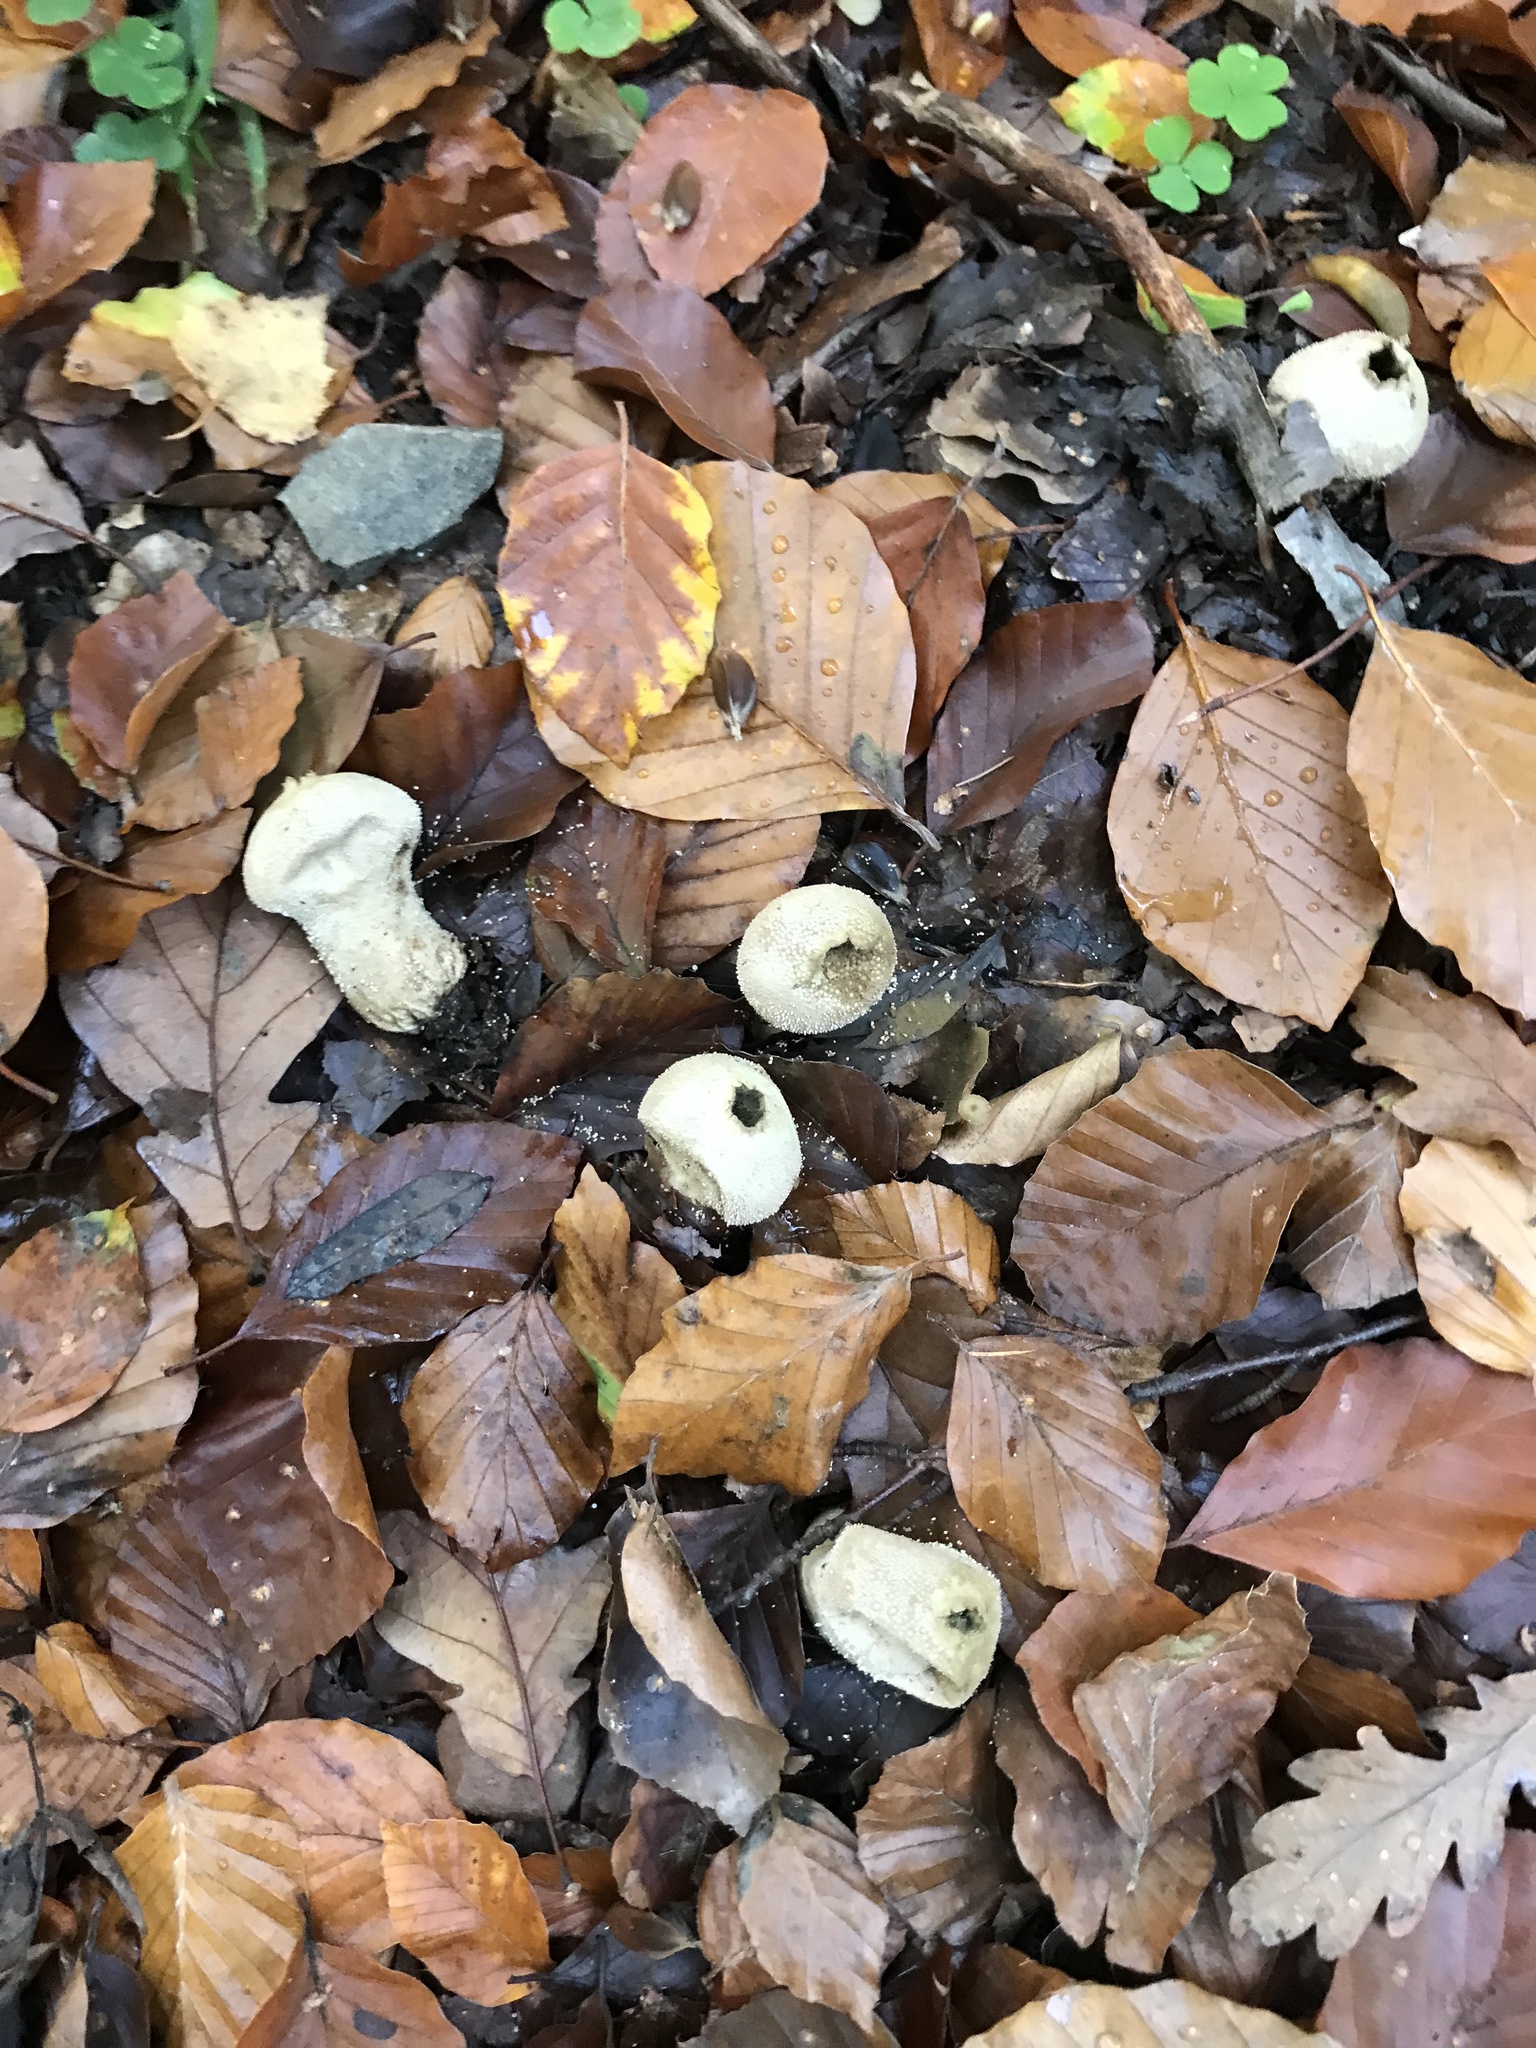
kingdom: Fungi
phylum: Basidiomycota
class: Agaricomycetes
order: Agaricales
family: Lycoperdaceae
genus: Lycoperdon
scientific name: Lycoperdon perlatum
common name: Common puffball
